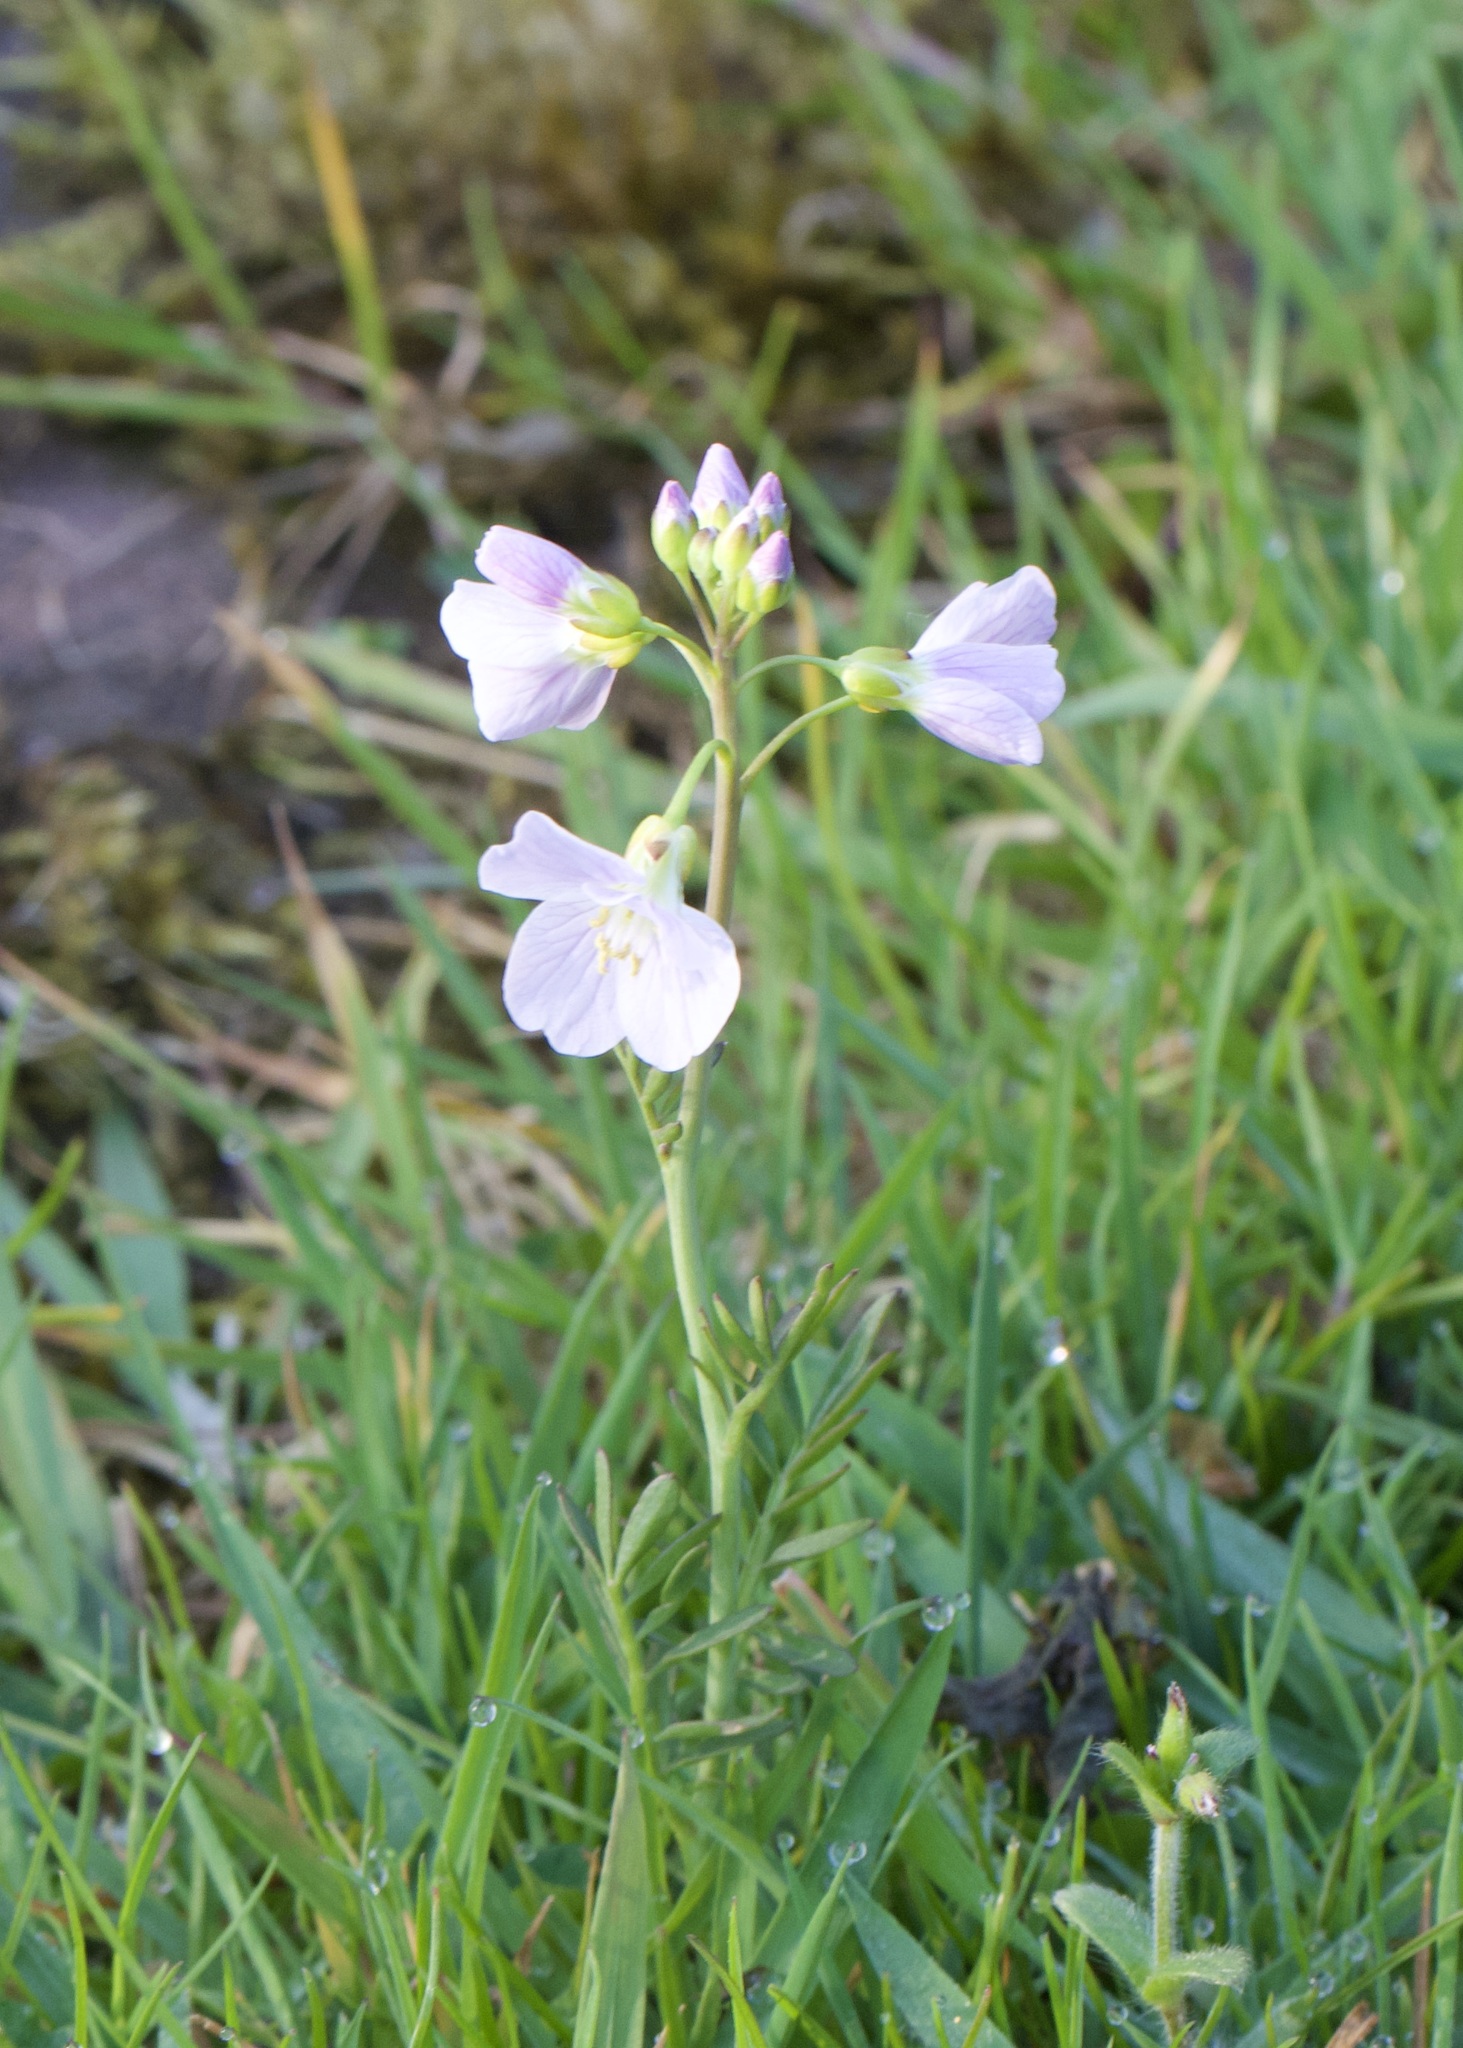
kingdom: Plantae
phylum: Tracheophyta
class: Magnoliopsida
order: Brassicales
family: Brassicaceae
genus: Cardamine
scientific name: Cardamine pratensis
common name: Cuckoo flower
